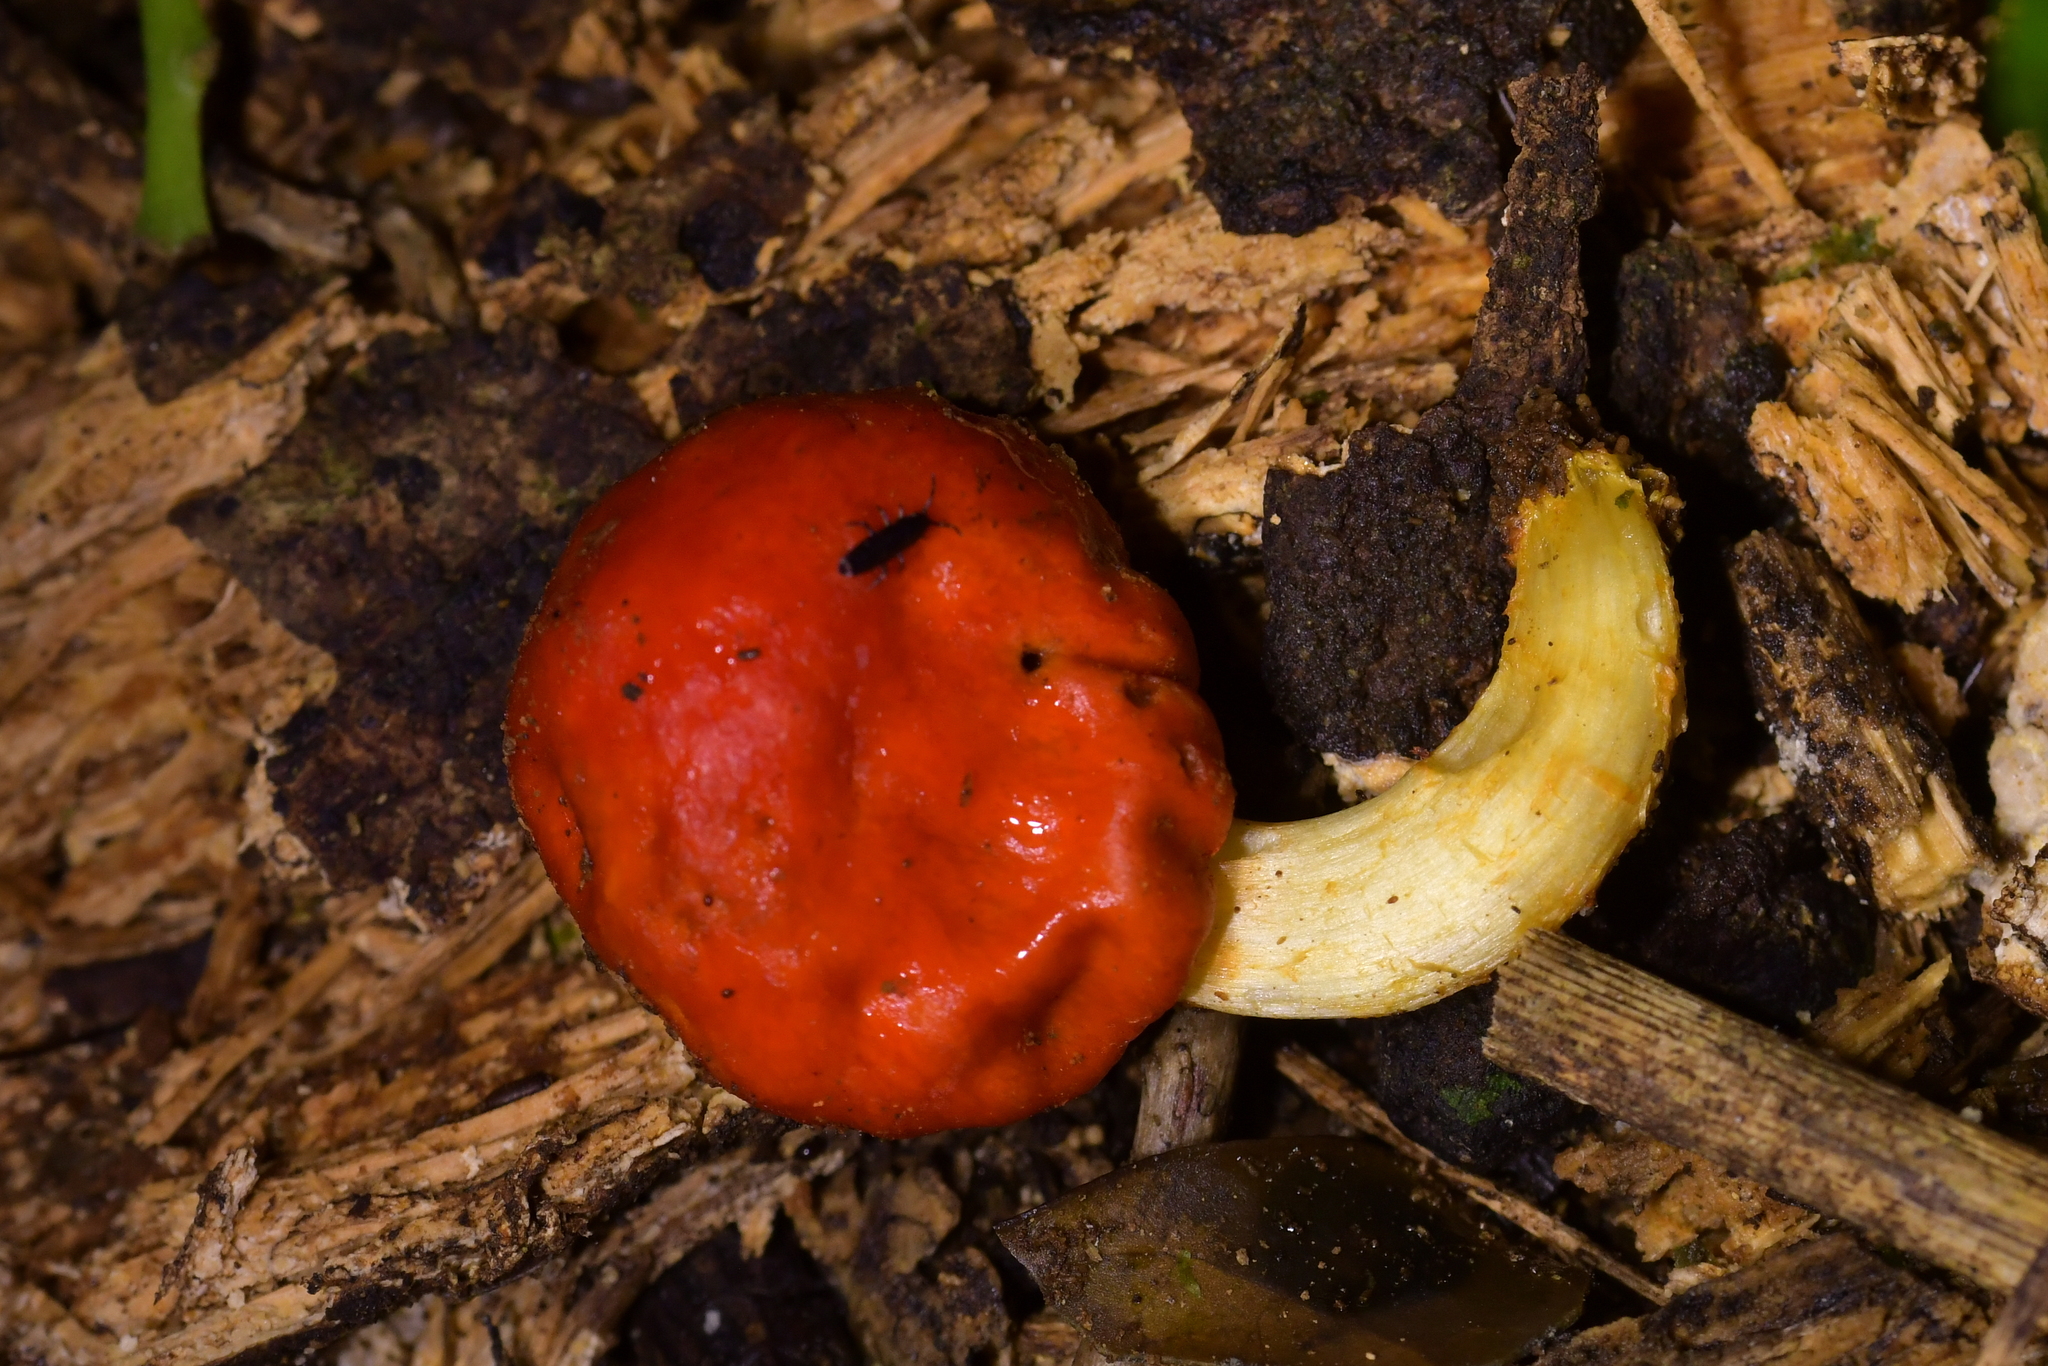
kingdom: Fungi
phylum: Basidiomycota
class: Agaricomycetes
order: Agaricales
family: Strophariaceae
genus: Leratiomyces
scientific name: Leratiomyces erythrocephalus
